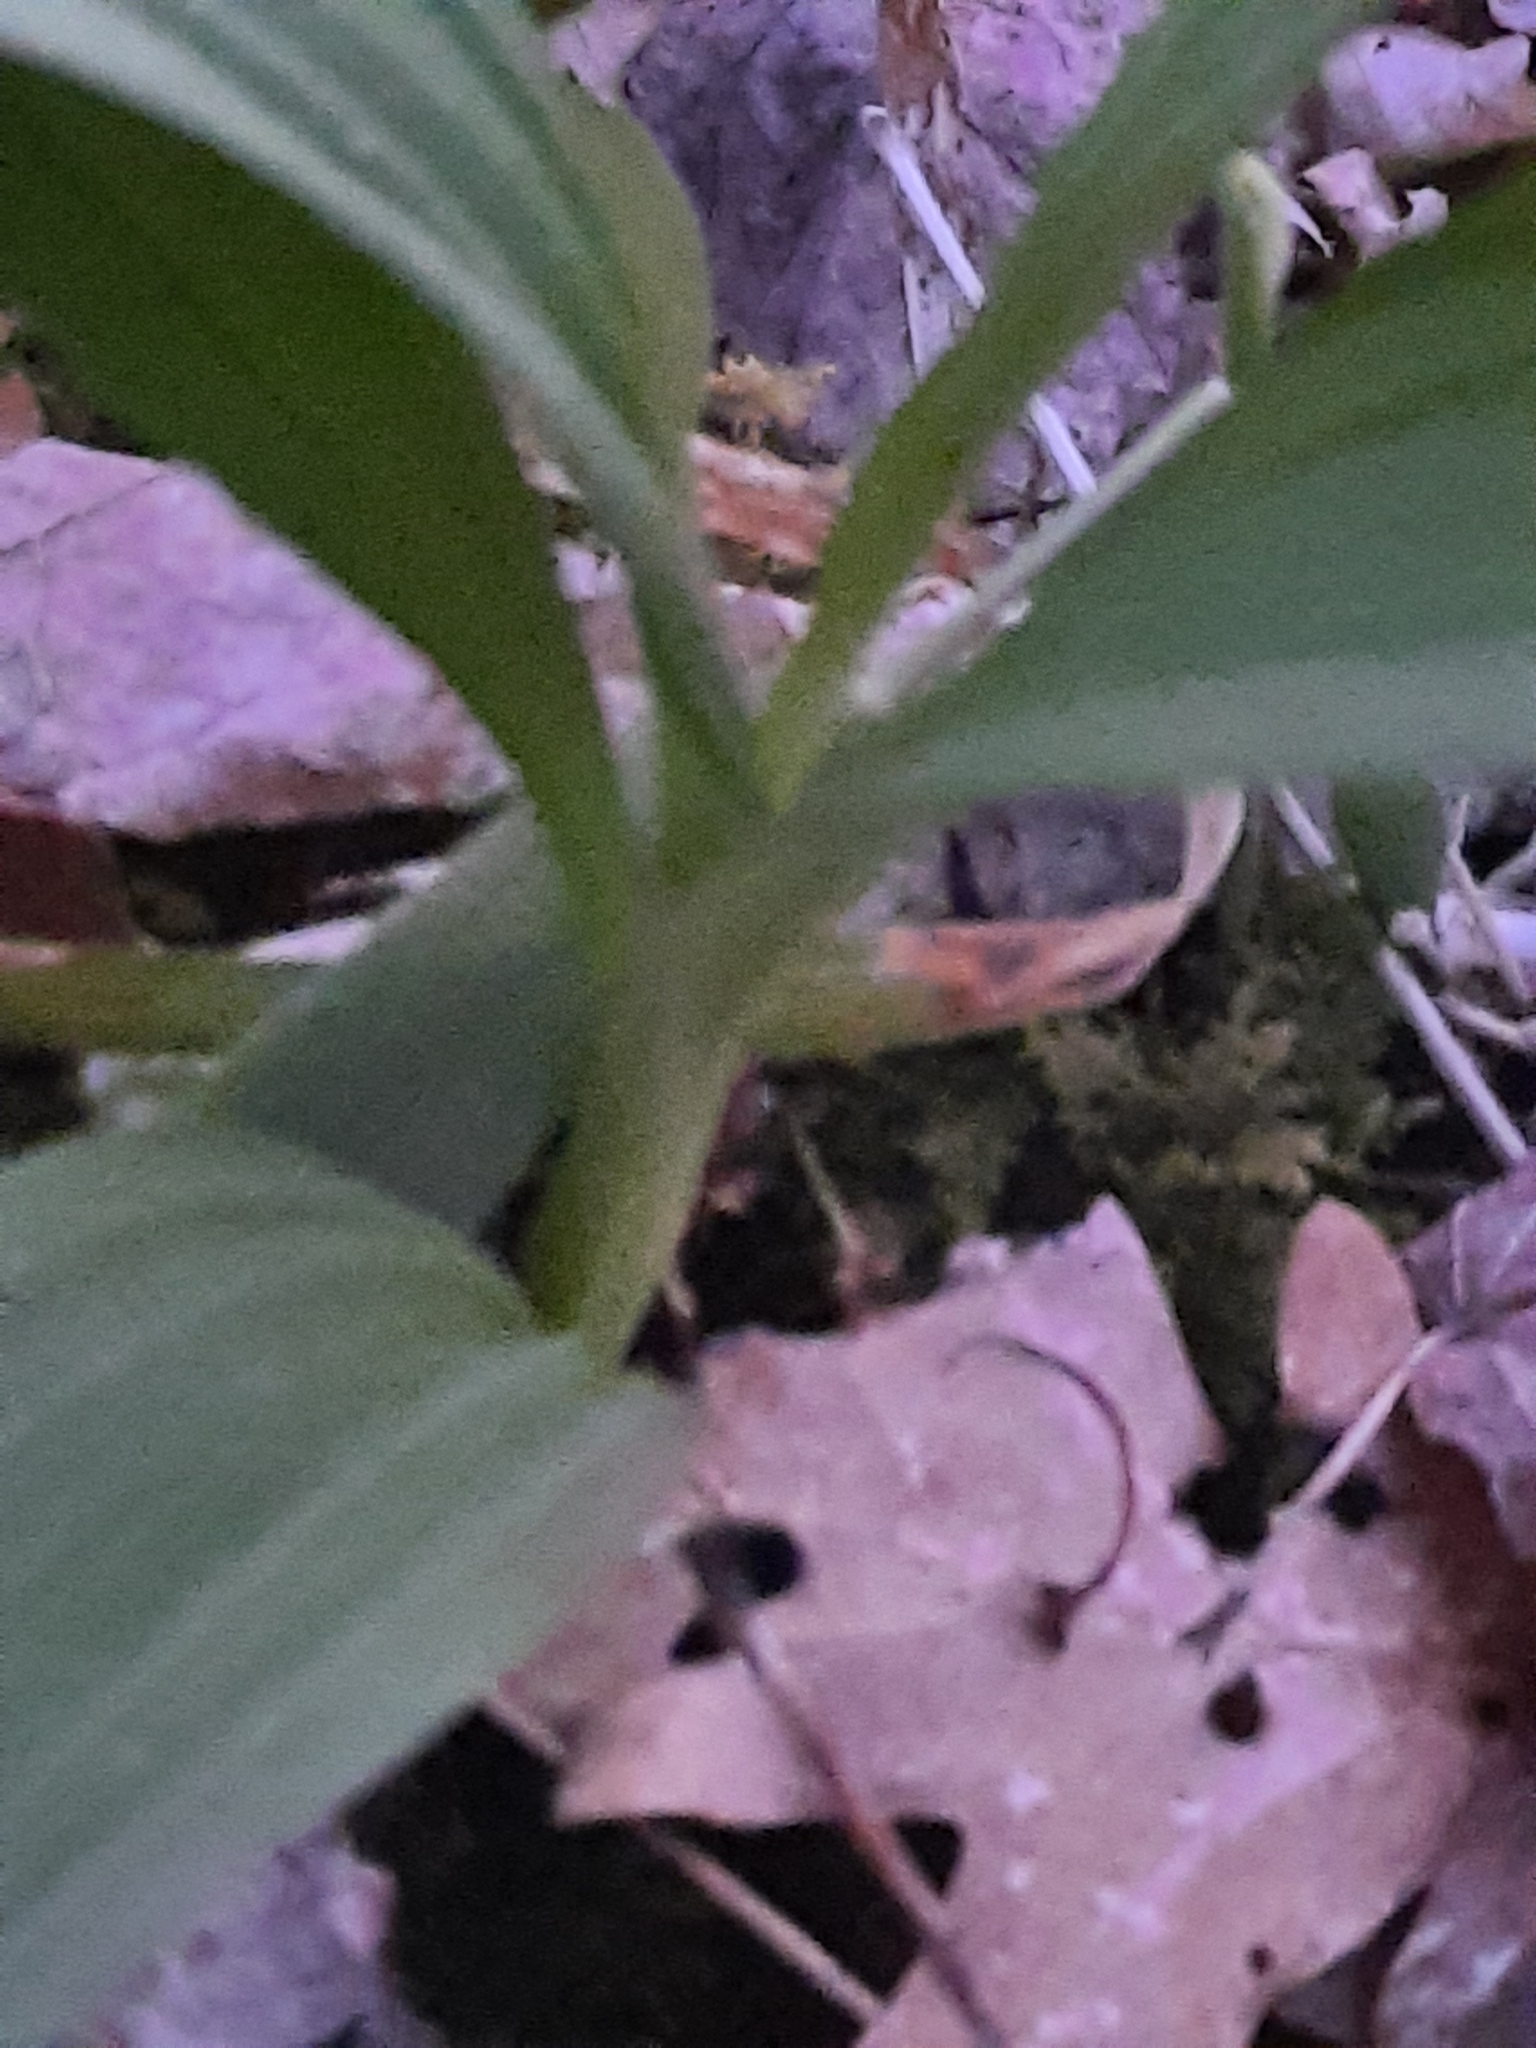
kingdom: Plantae
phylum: Tracheophyta
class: Liliopsida
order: Liliales
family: Melanthiaceae
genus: Veratrum
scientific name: Veratrum viride
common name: American false hellebore
